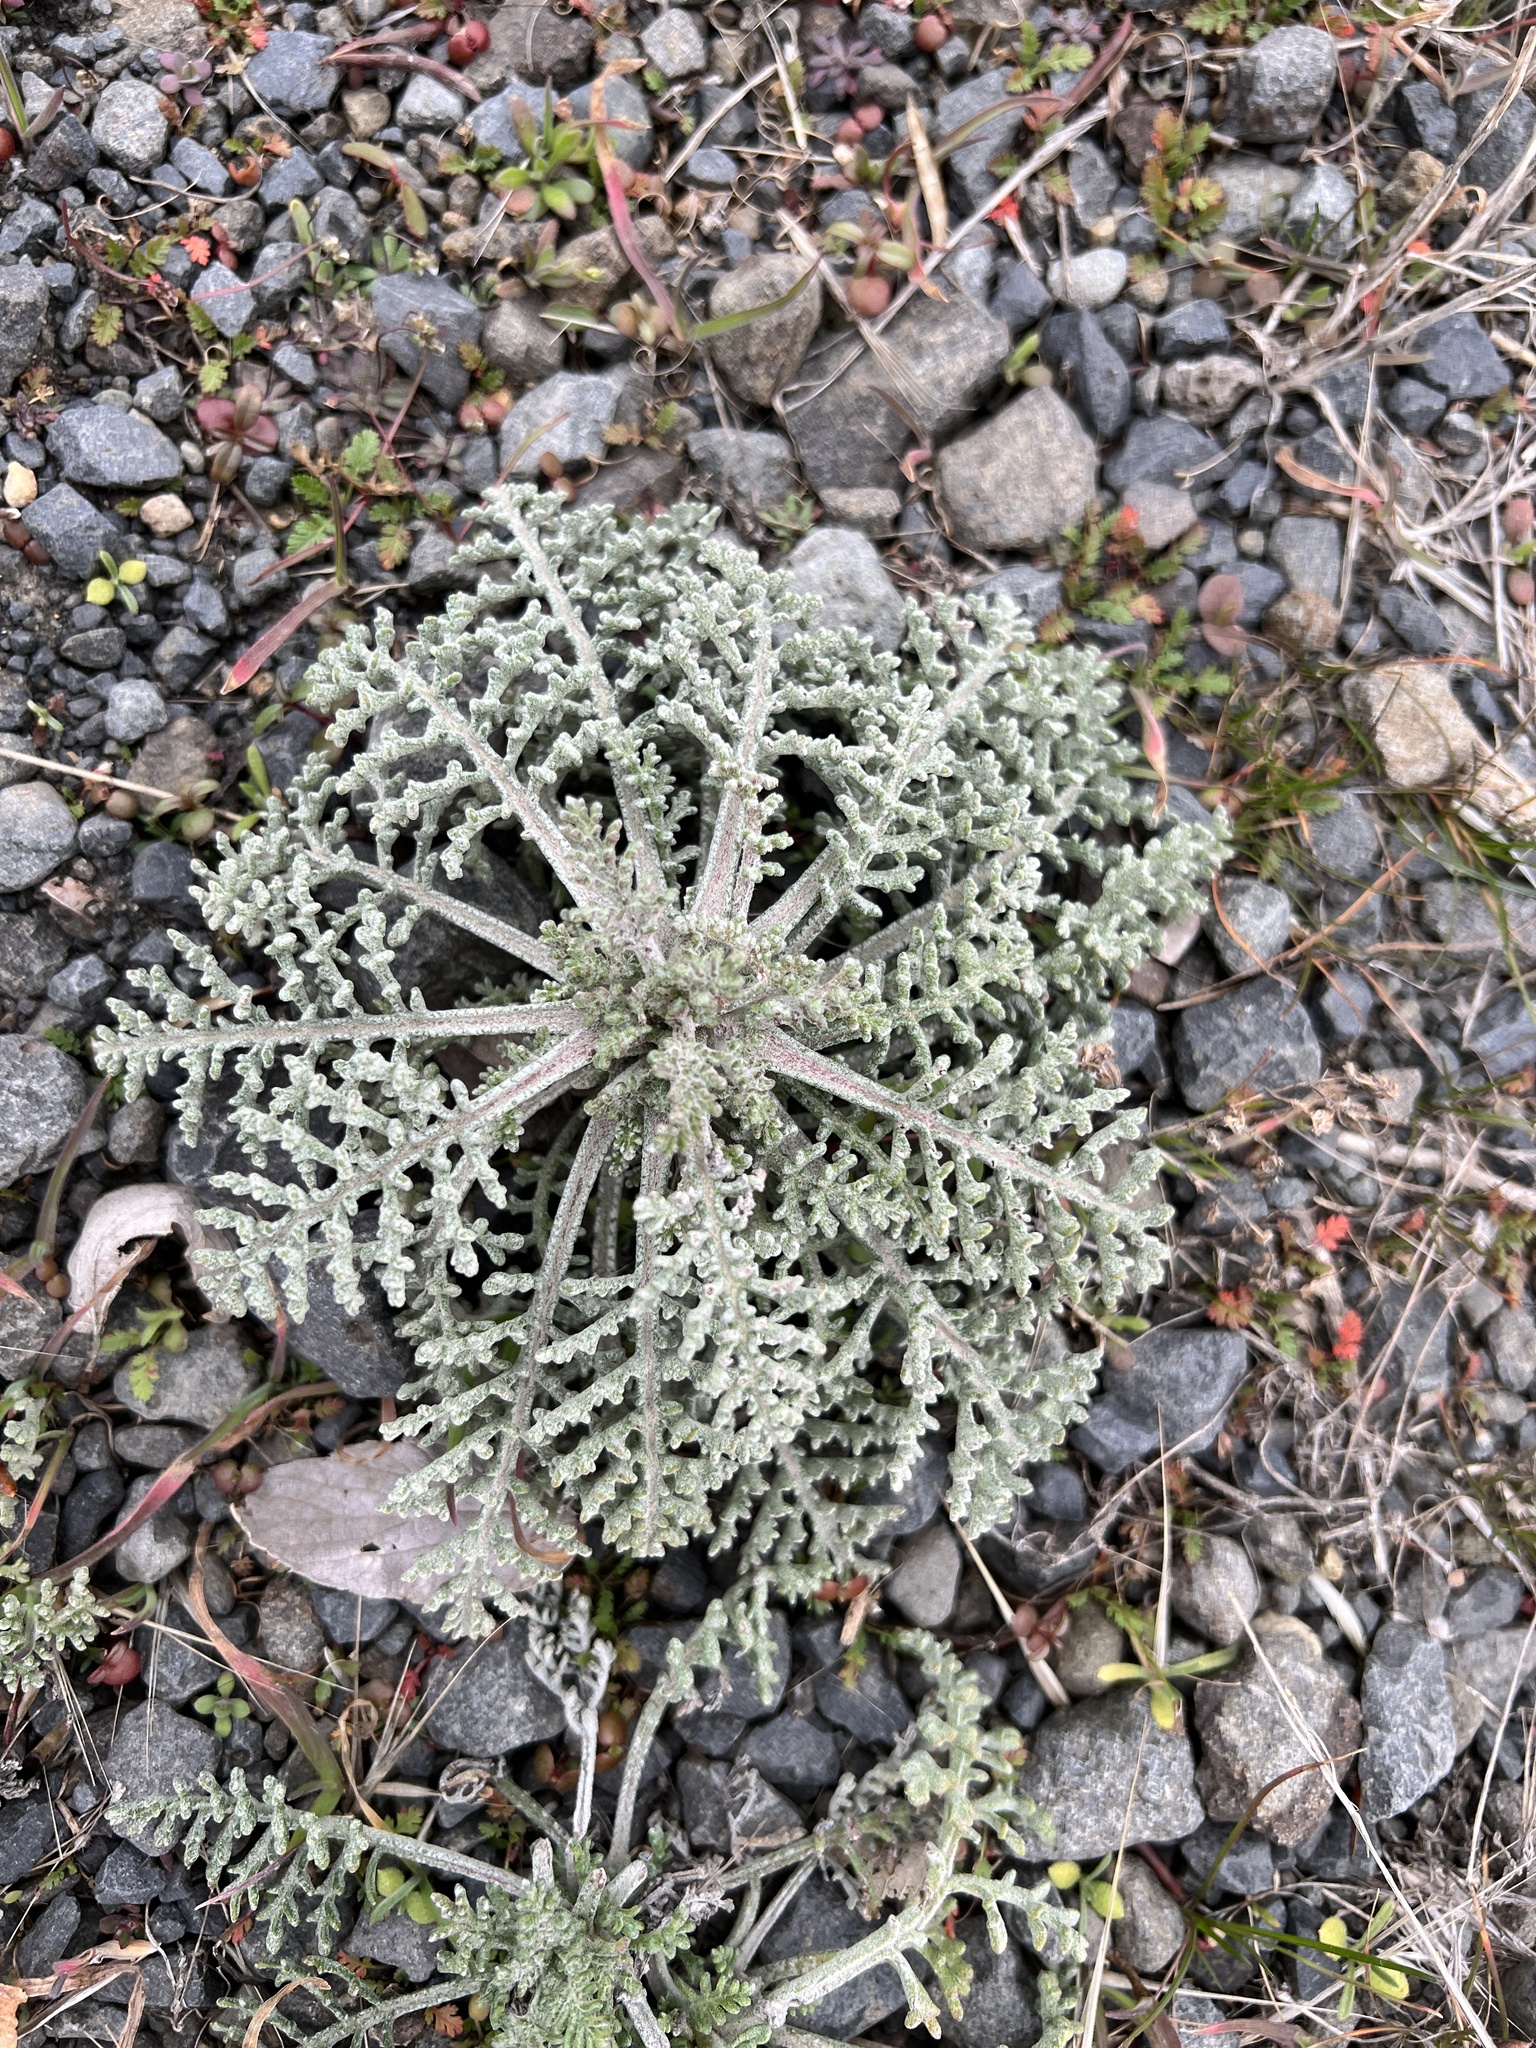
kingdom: Plantae
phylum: Tracheophyta
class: Magnoliopsida
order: Asterales
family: Asteraceae
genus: Chaenactis
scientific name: Chaenactis douglasii
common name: Hoary pincushion
